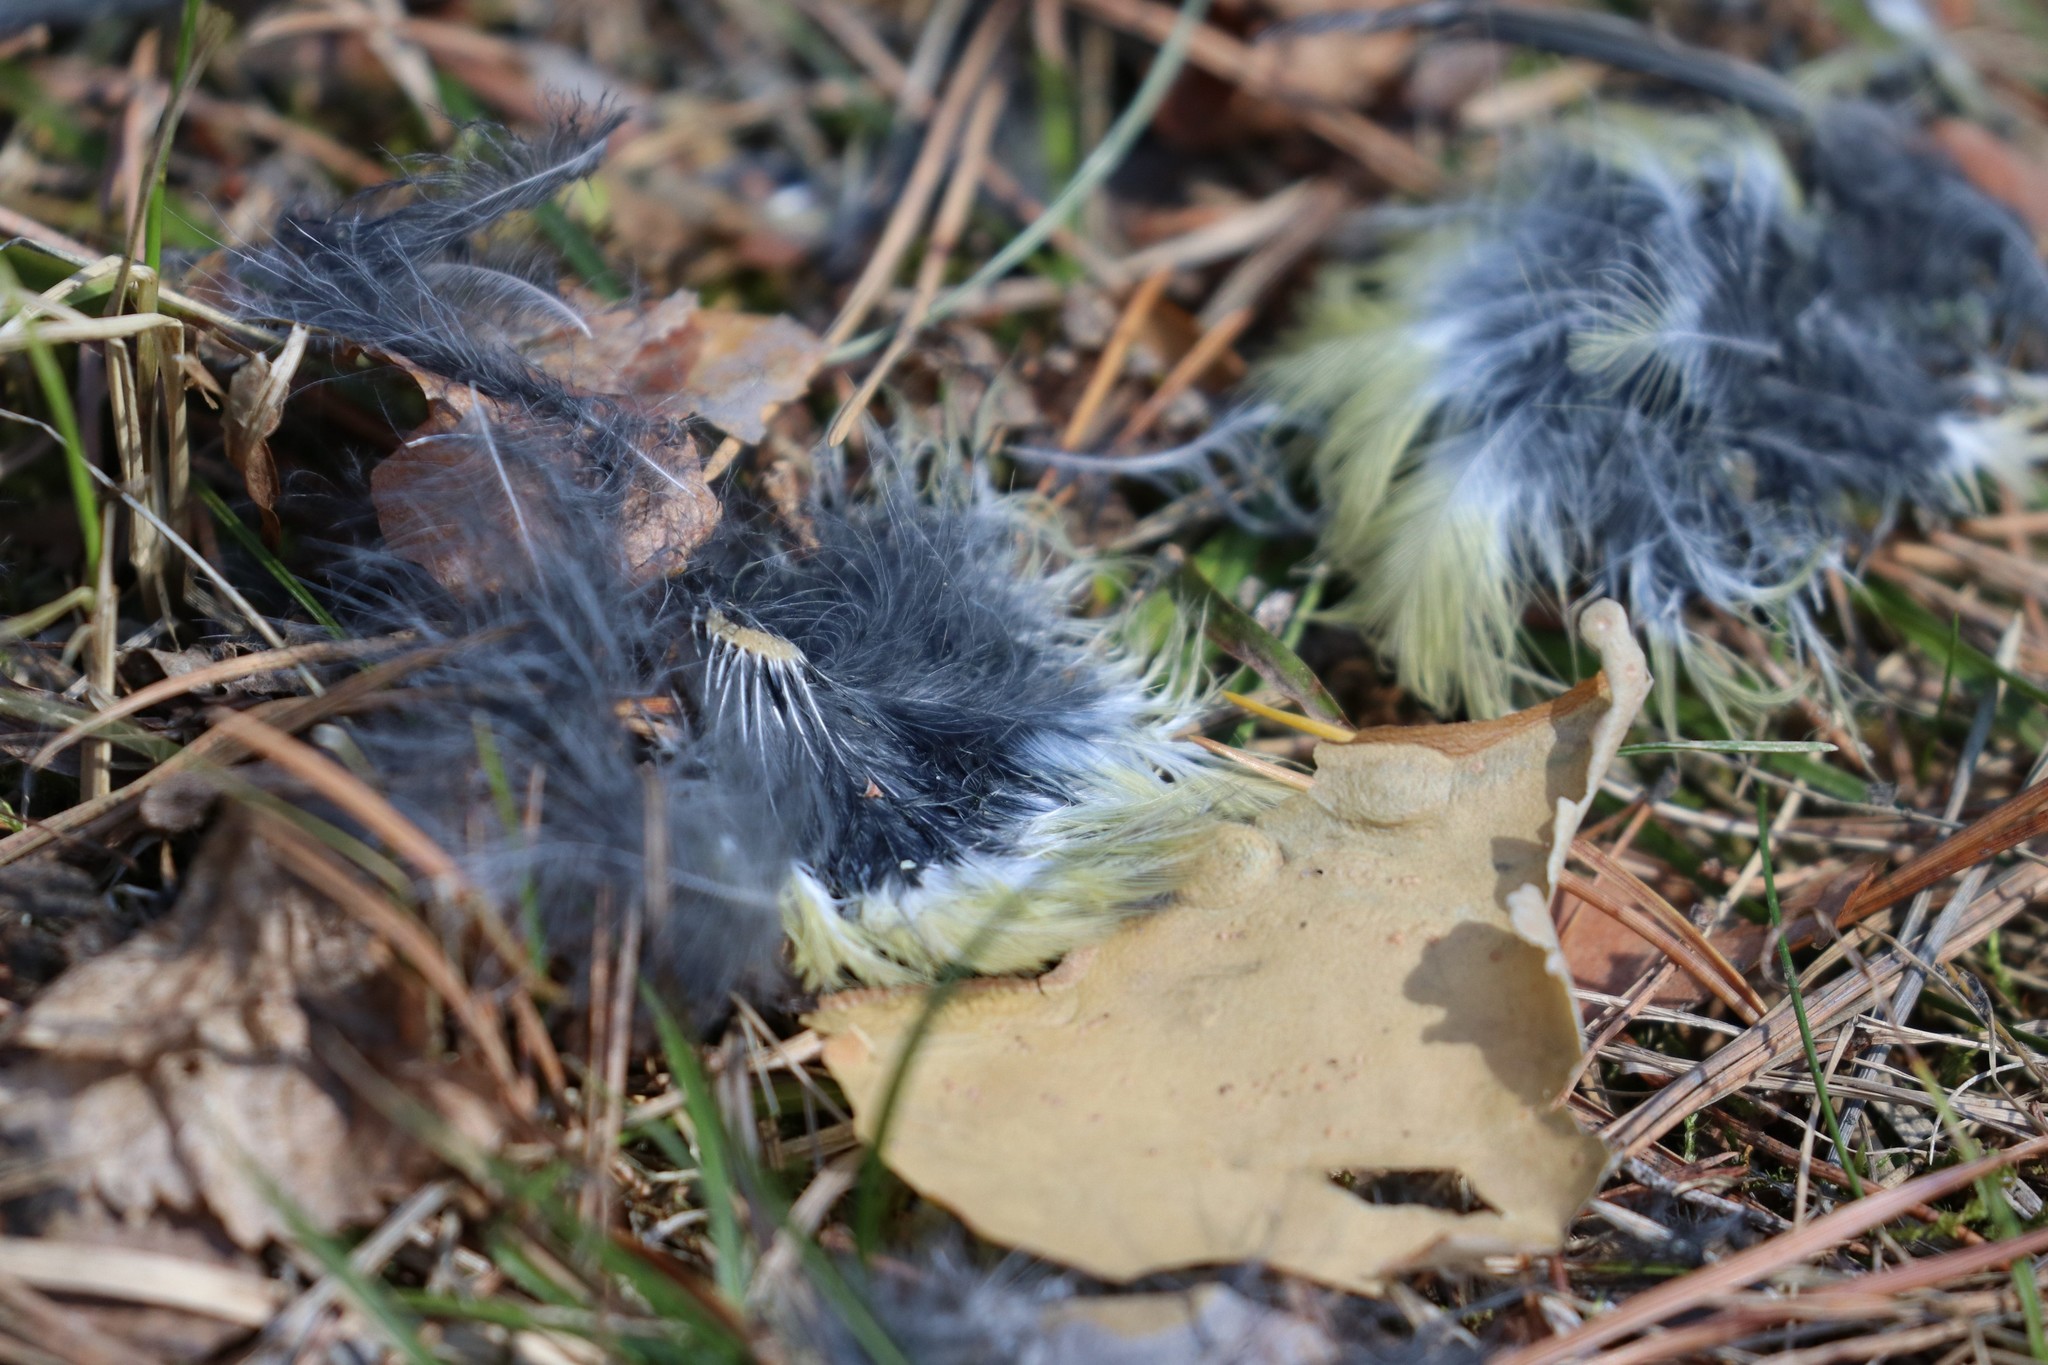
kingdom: Animalia
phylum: Chordata
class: Aves
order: Passeriformes
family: Paridae
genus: Parus
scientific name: Parus major
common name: Great tit
